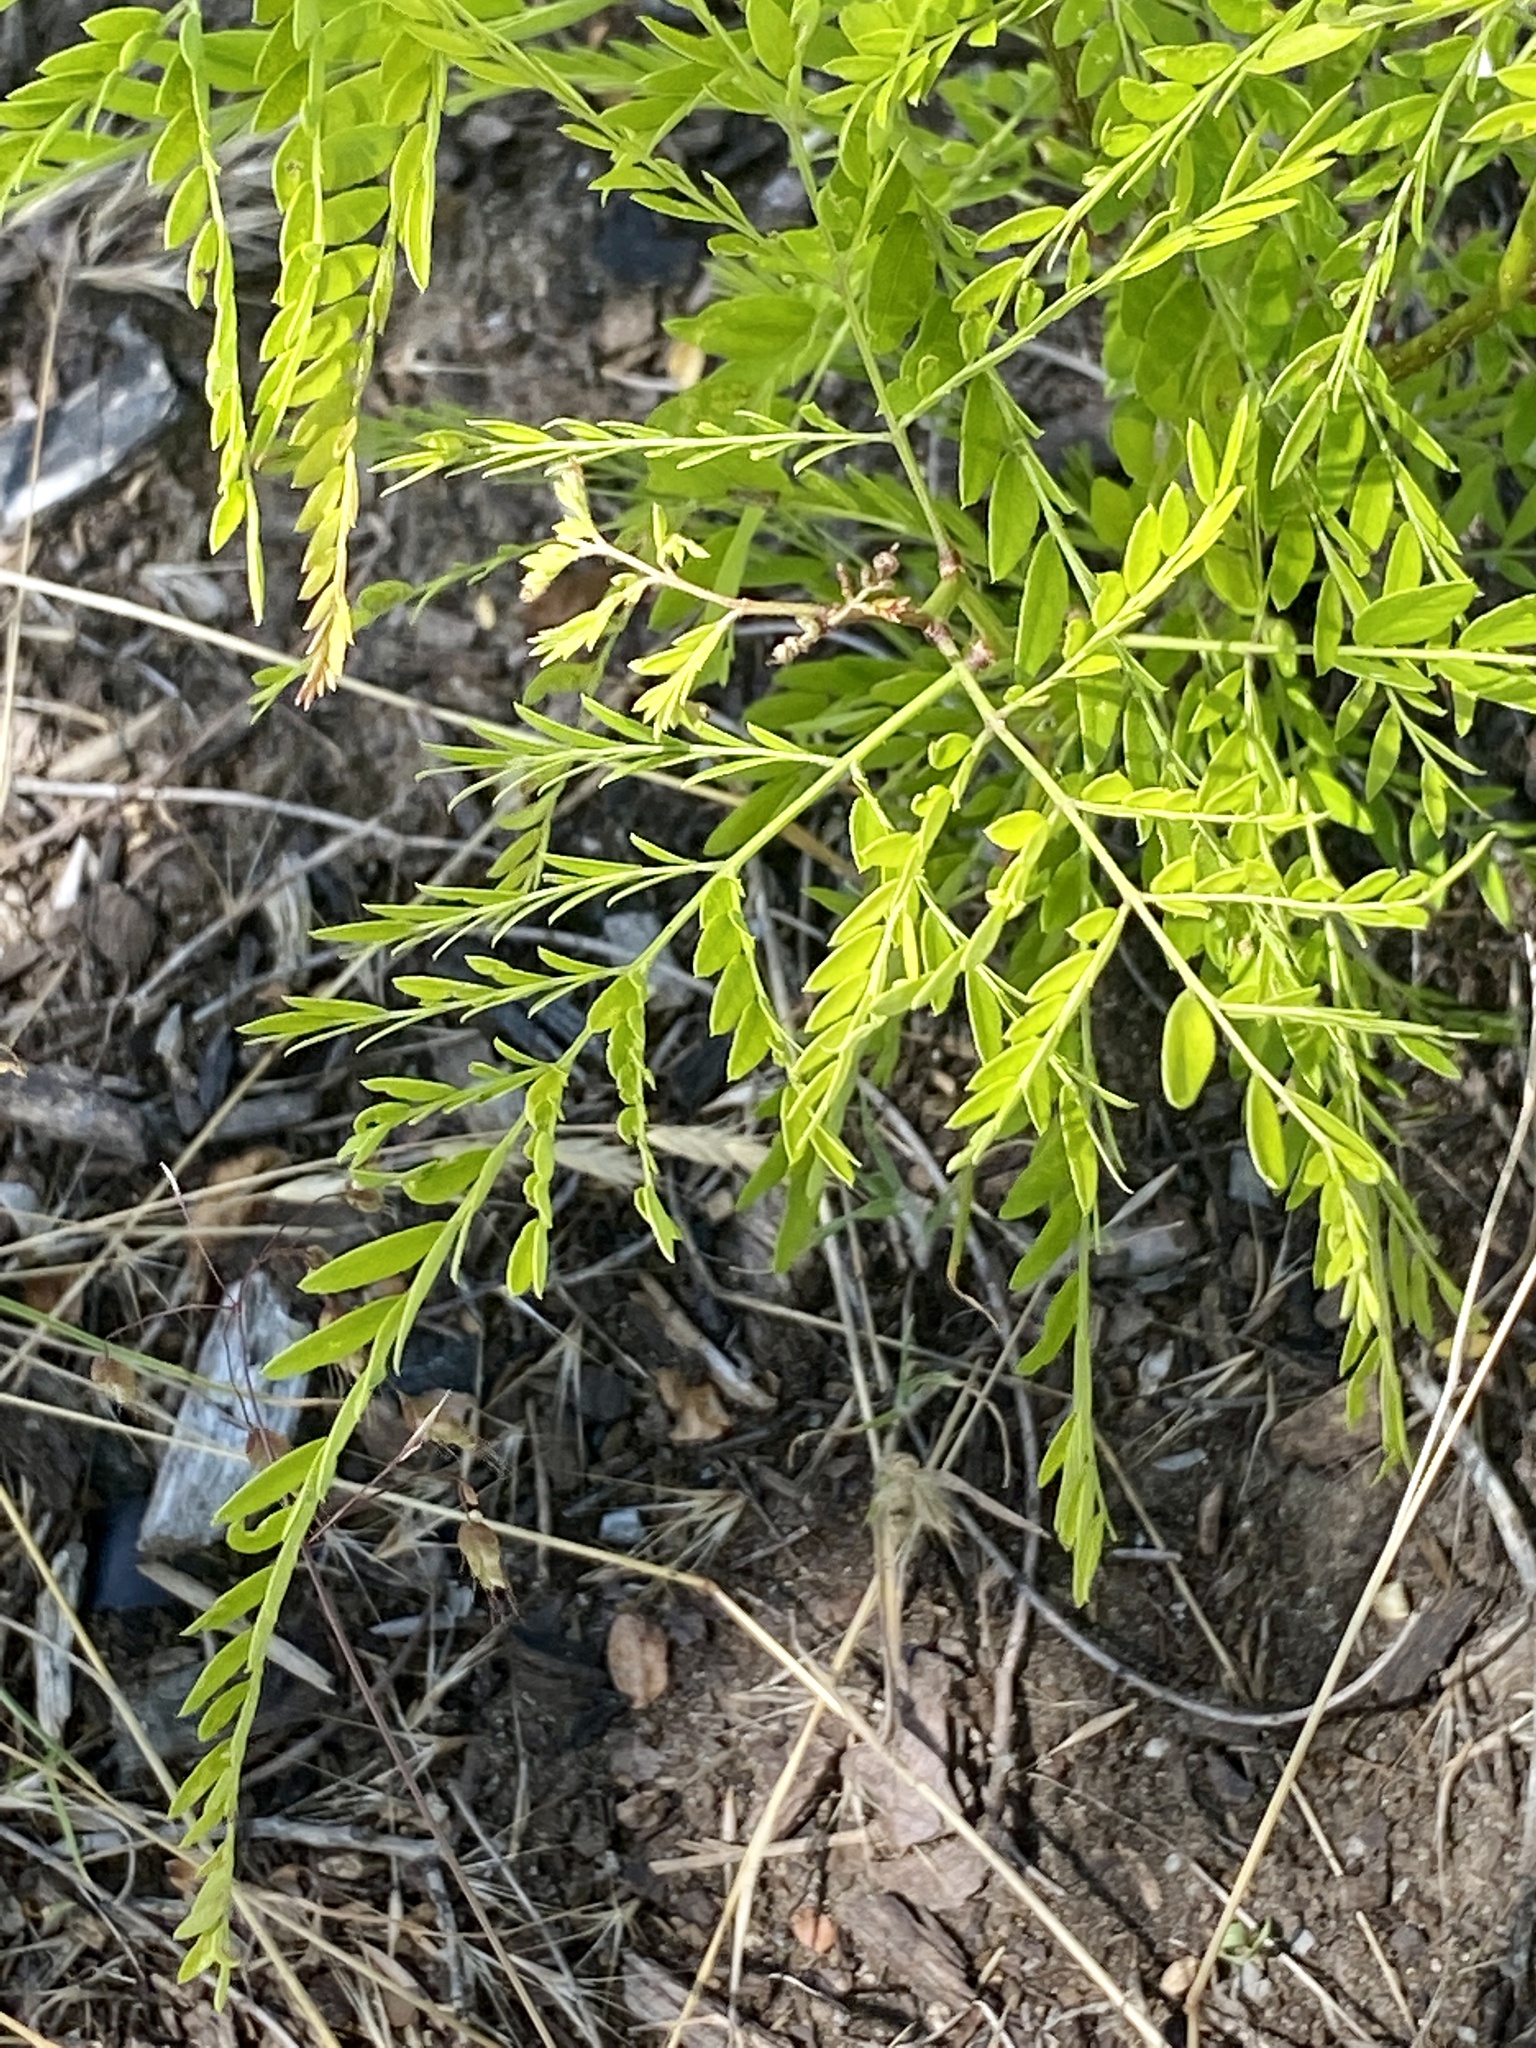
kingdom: Plantae
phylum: Tracheophyta
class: Magnoliopsida
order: Fabales
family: Fabaceae
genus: Gleditsia
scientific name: Gleditsia triacanthos
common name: Common honeylocust
